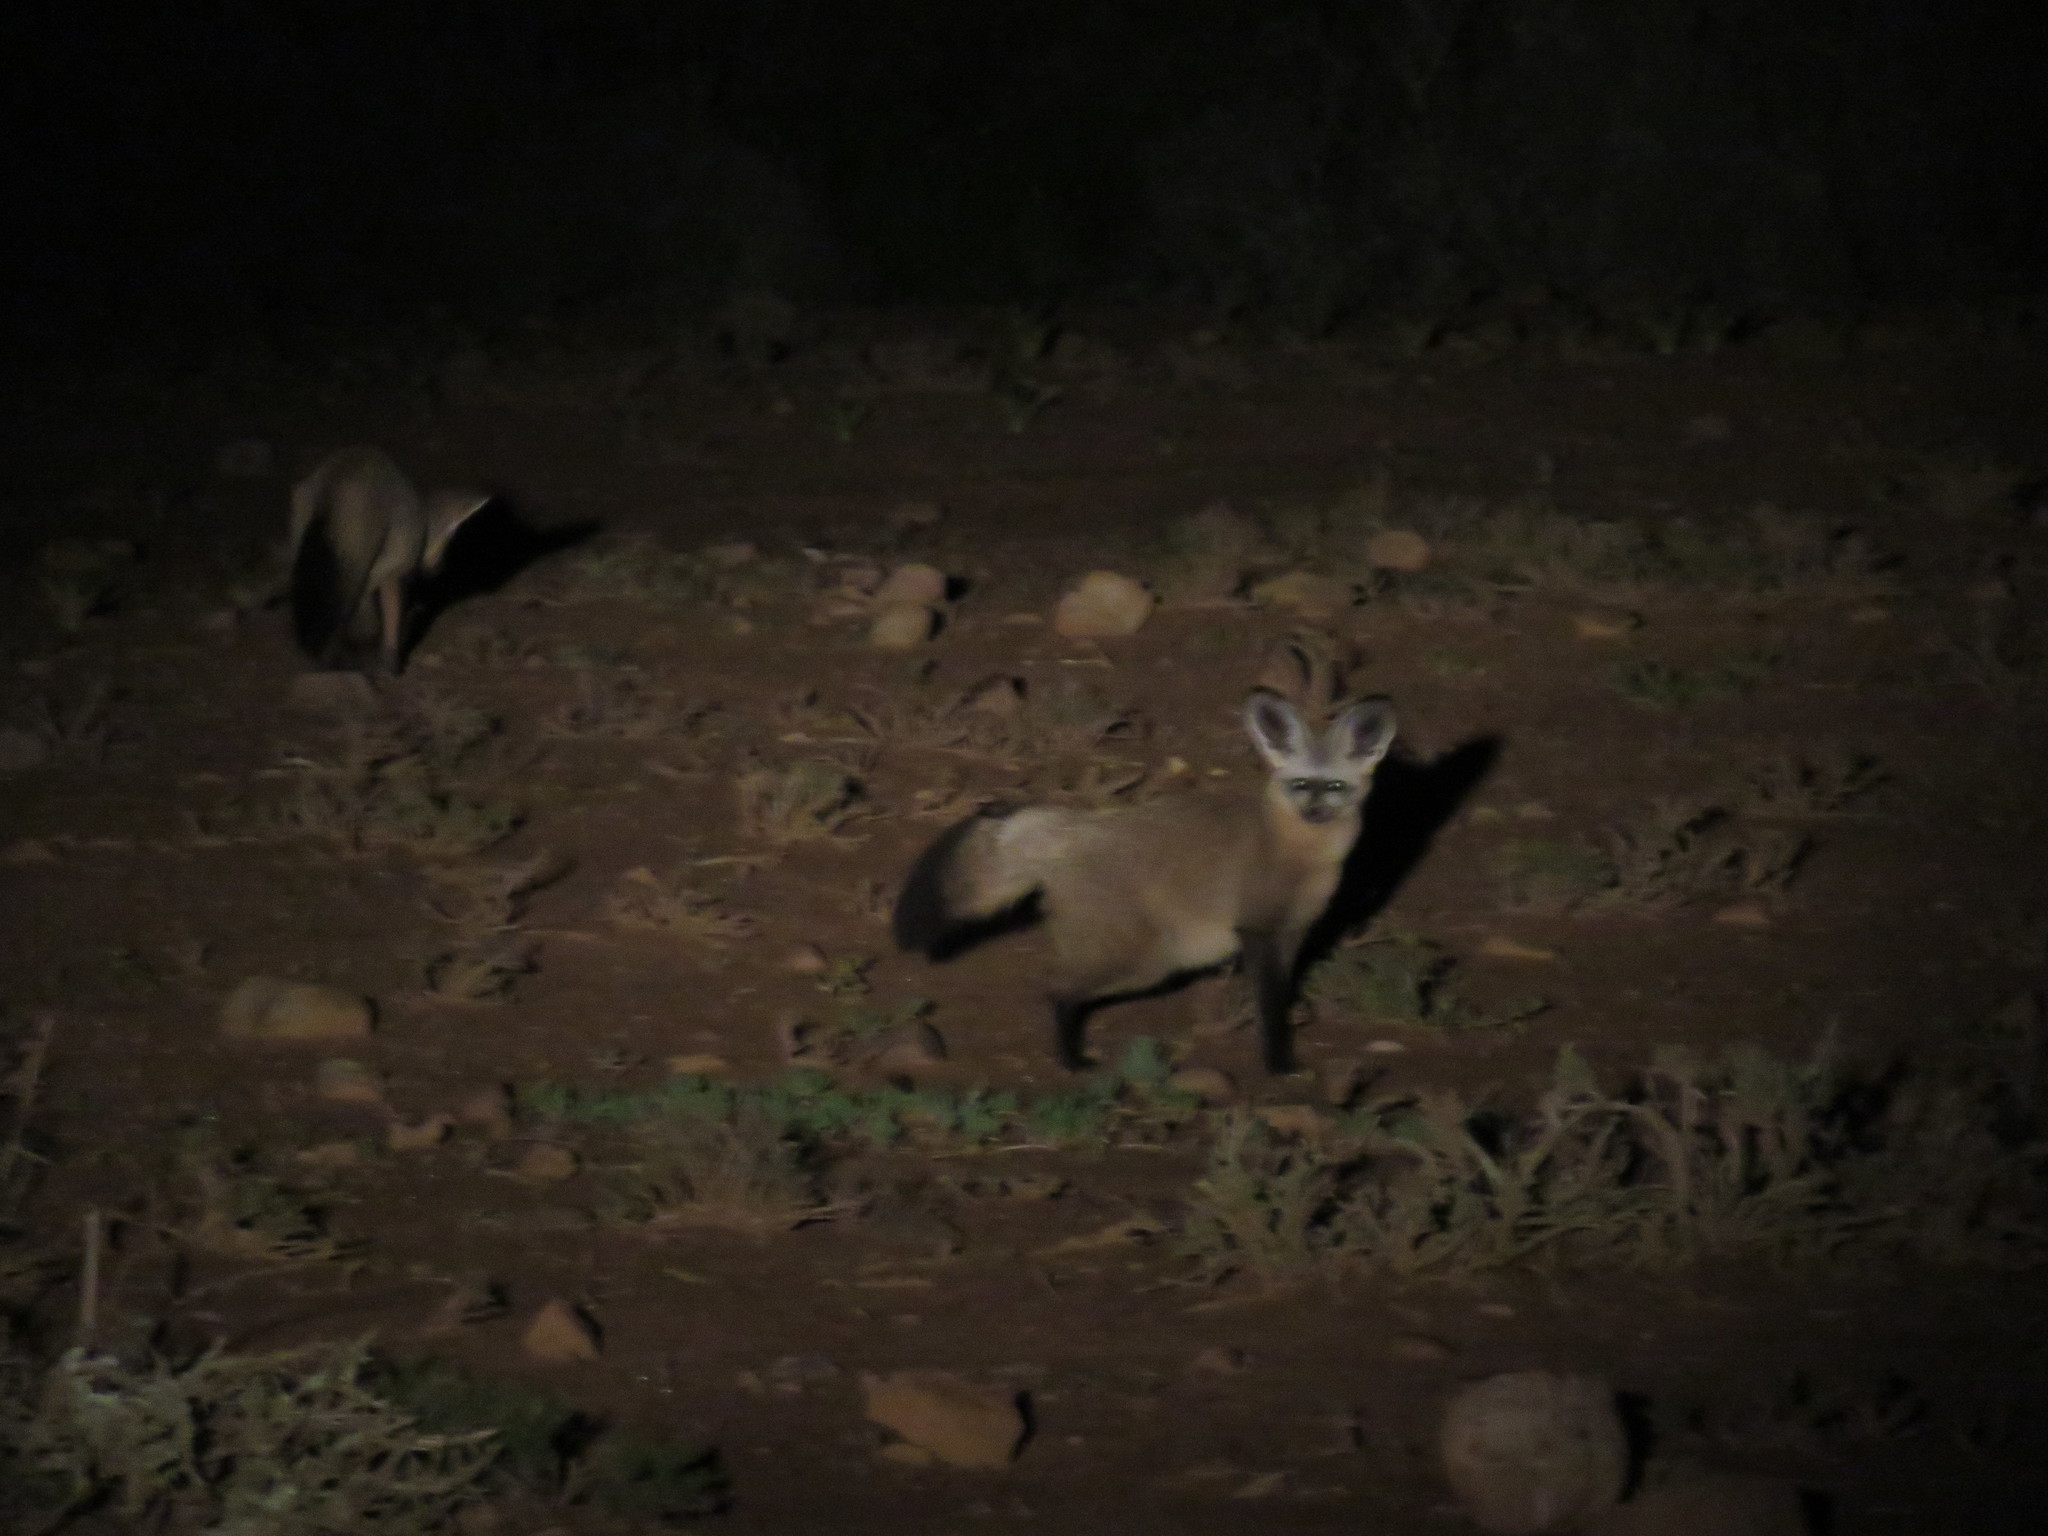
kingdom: Animalia
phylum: Chordata
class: Mammalia
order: Carnivora
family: Canidae
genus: Otocyon
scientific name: Otocyon megalotis
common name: Bat-eared fox
